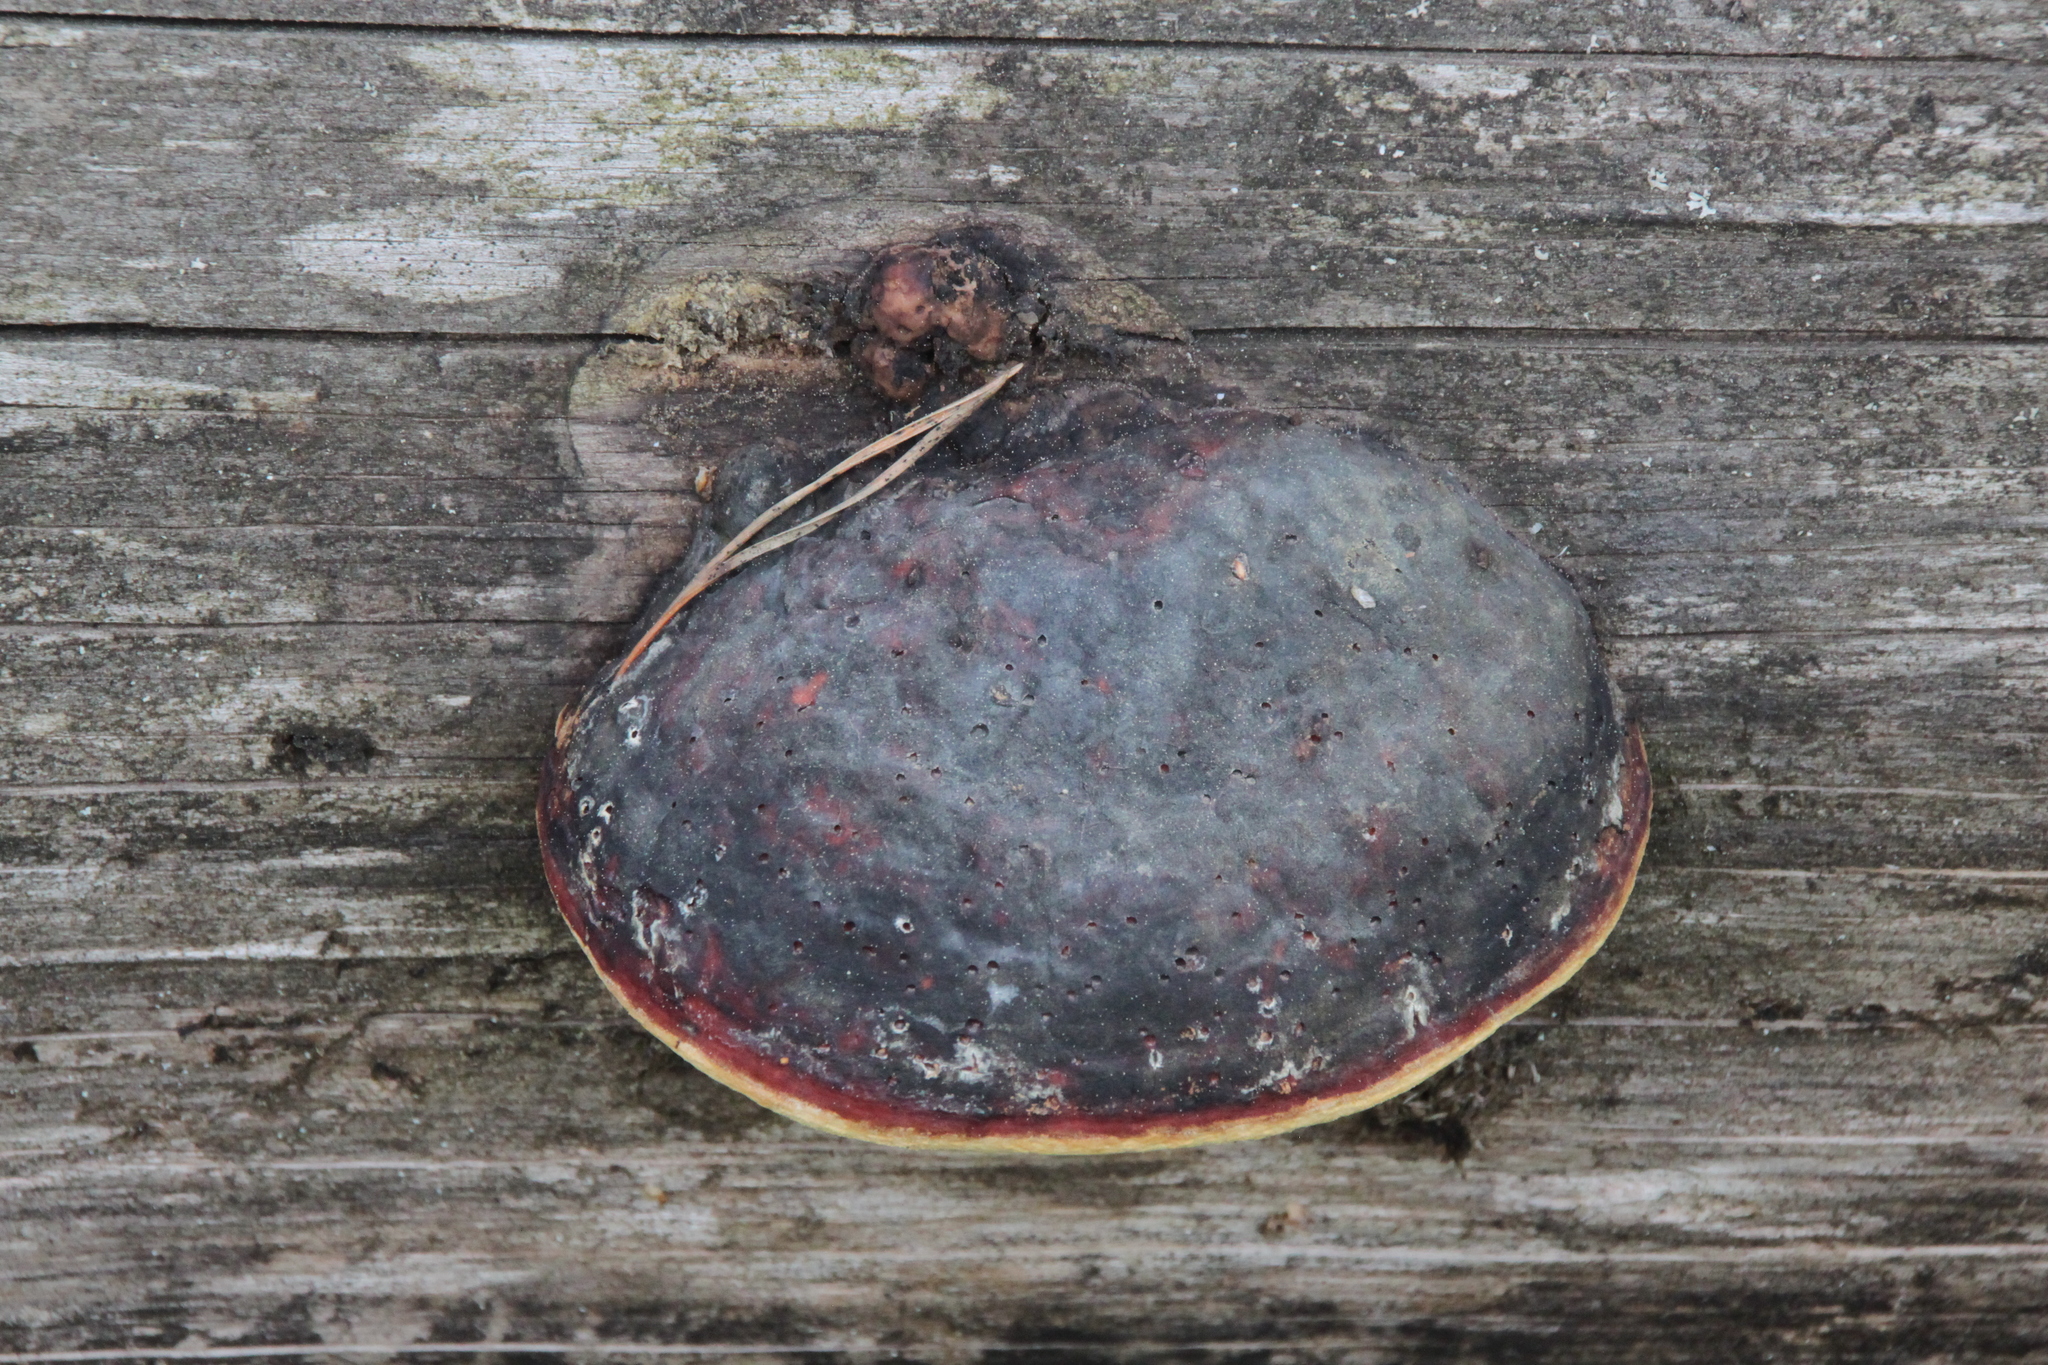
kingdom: Fungi
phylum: Basidiomycota
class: Agaricomycetes
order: Polyporales
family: Fomitopsidaceae
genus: Fomitopsis
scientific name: Fomitopsis pinicola
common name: Red-belted bracket
